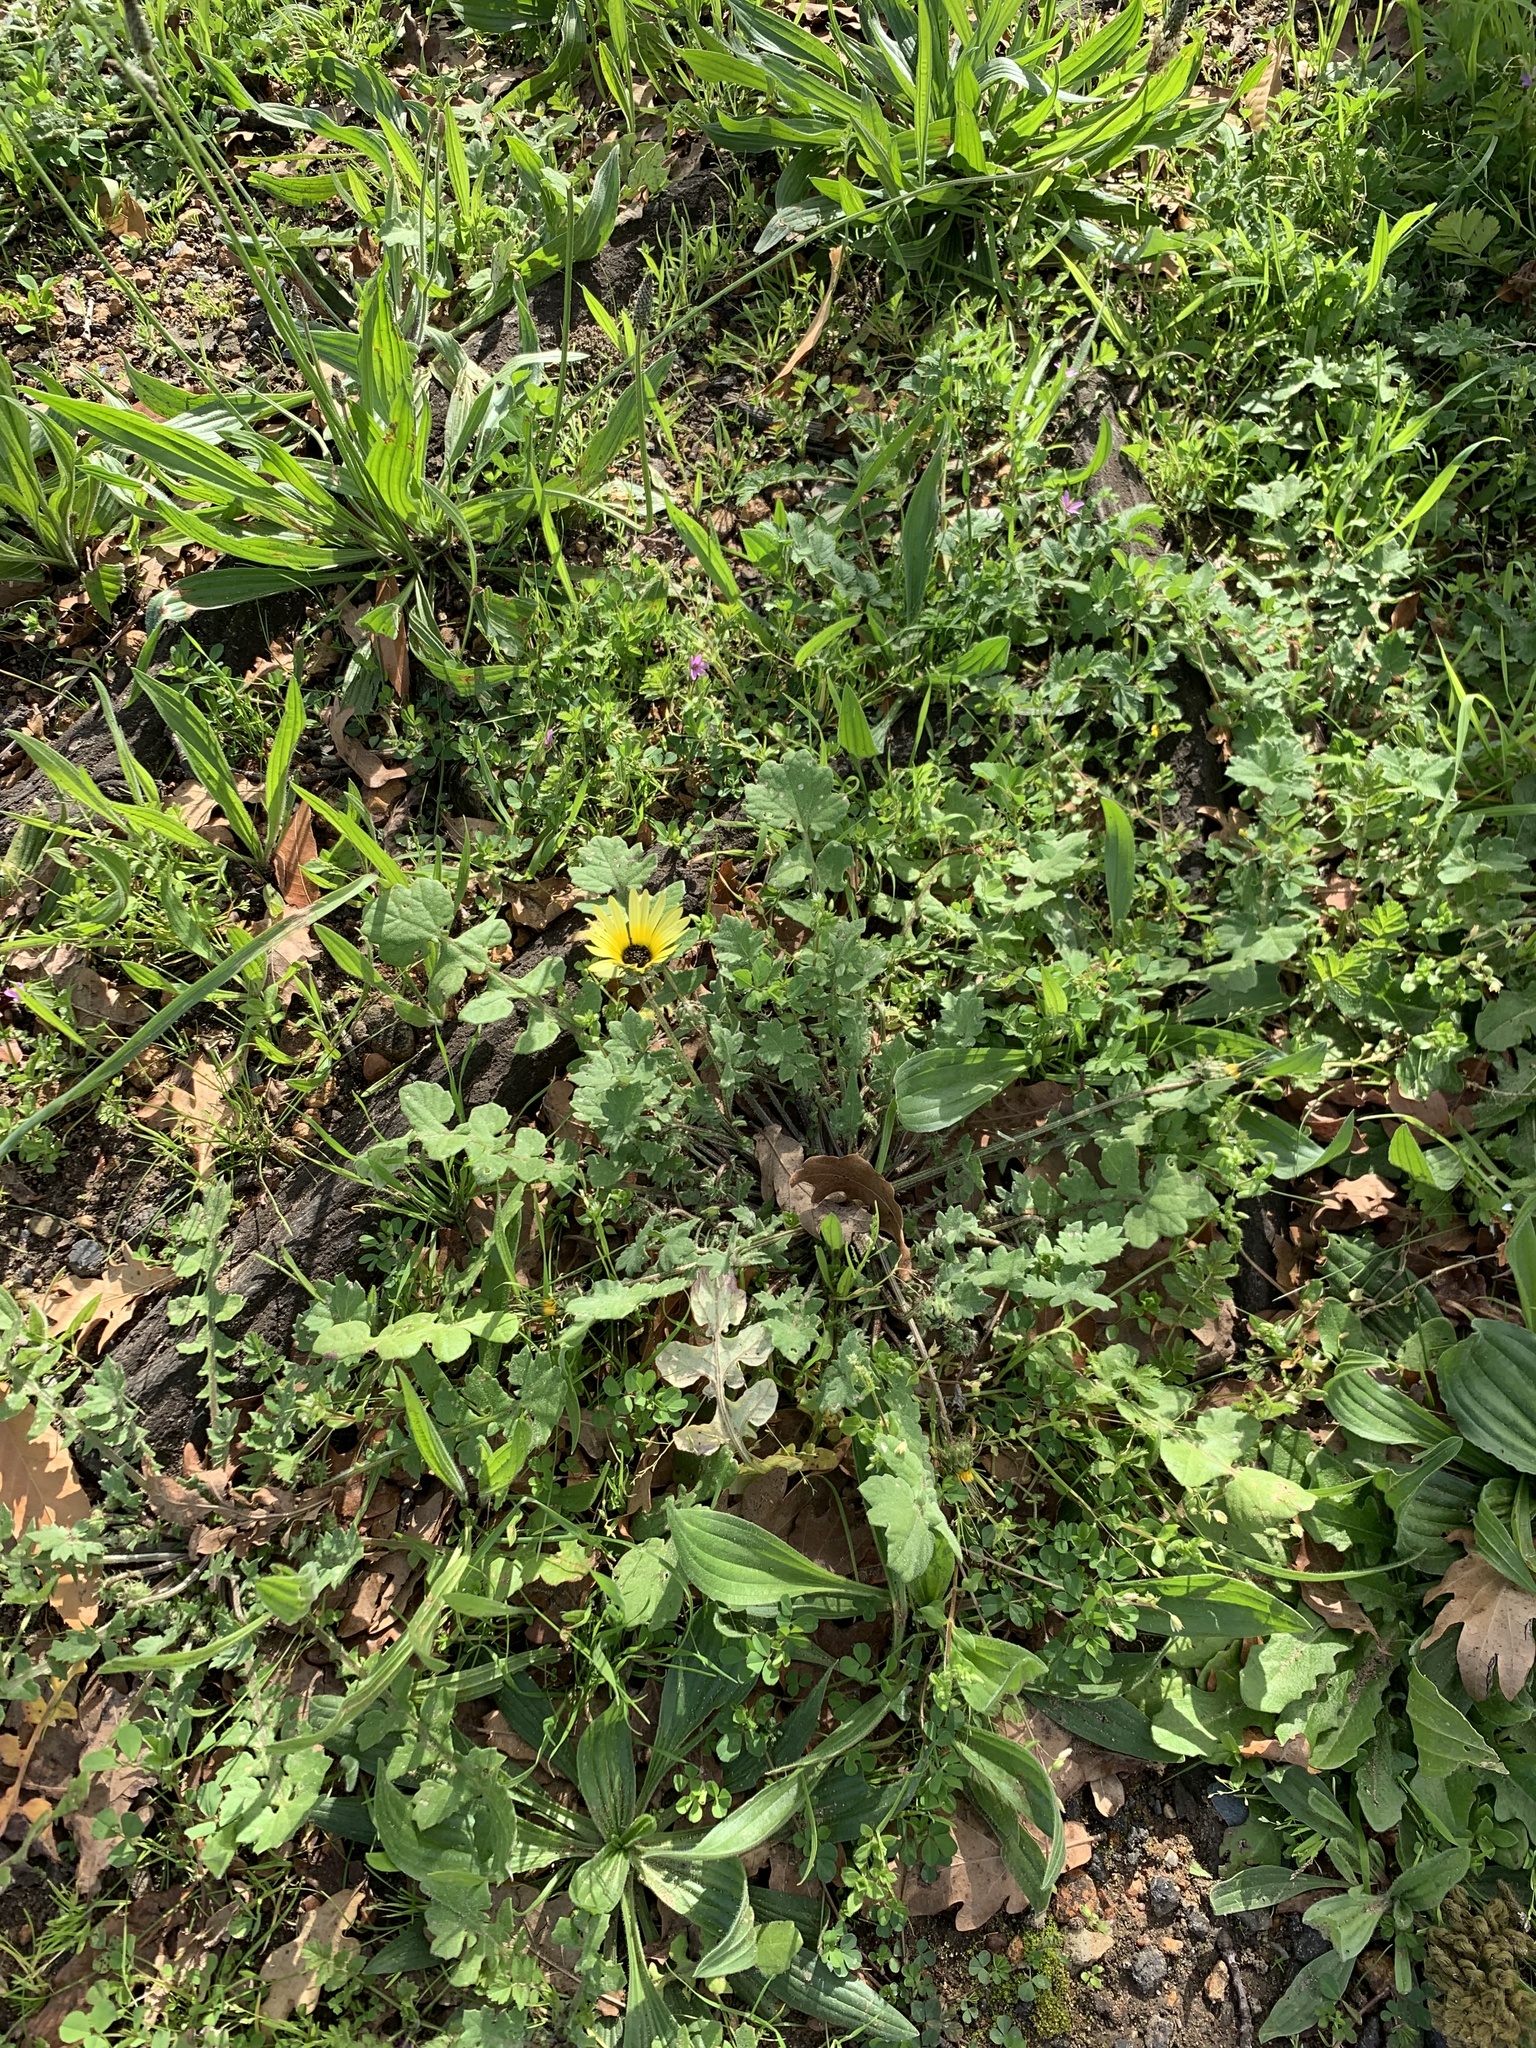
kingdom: Plantae
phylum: Tracheophyta
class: Magnoliopsida
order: Asterales
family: Asteraceae
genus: Arctotheca
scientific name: Arctotheca calendula
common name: Capeweed
